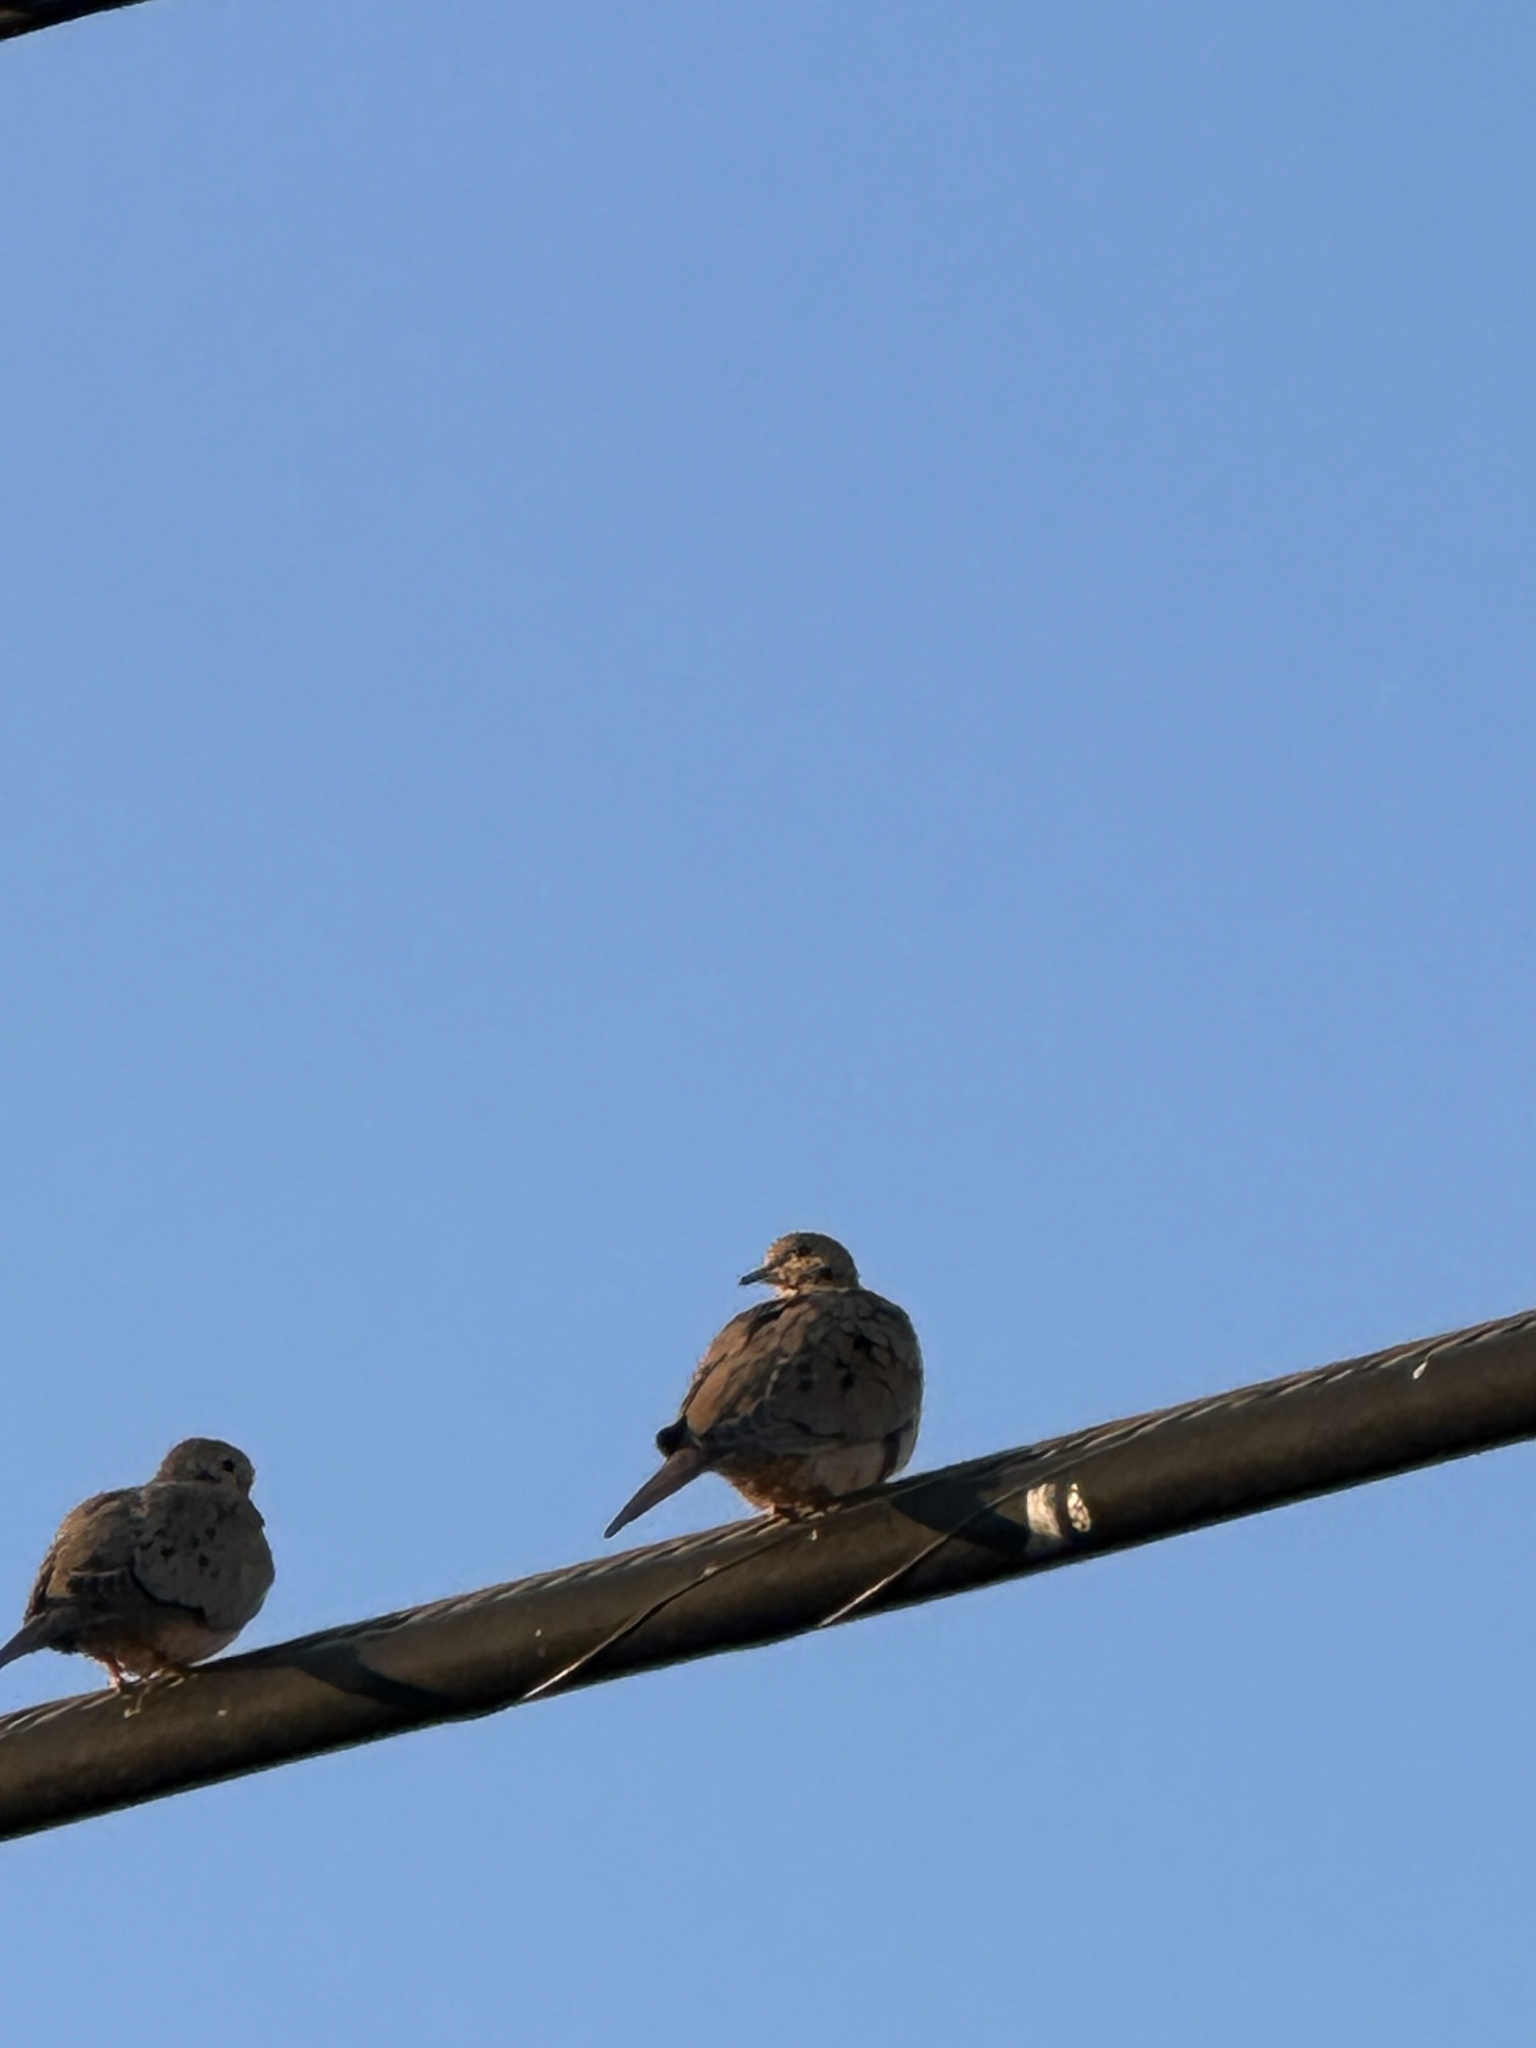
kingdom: Animalia
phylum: Chordata
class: Aves
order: Columbiformes
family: Columbidae
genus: Zenaida
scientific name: Zenaida macroura
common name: Mourning dove
